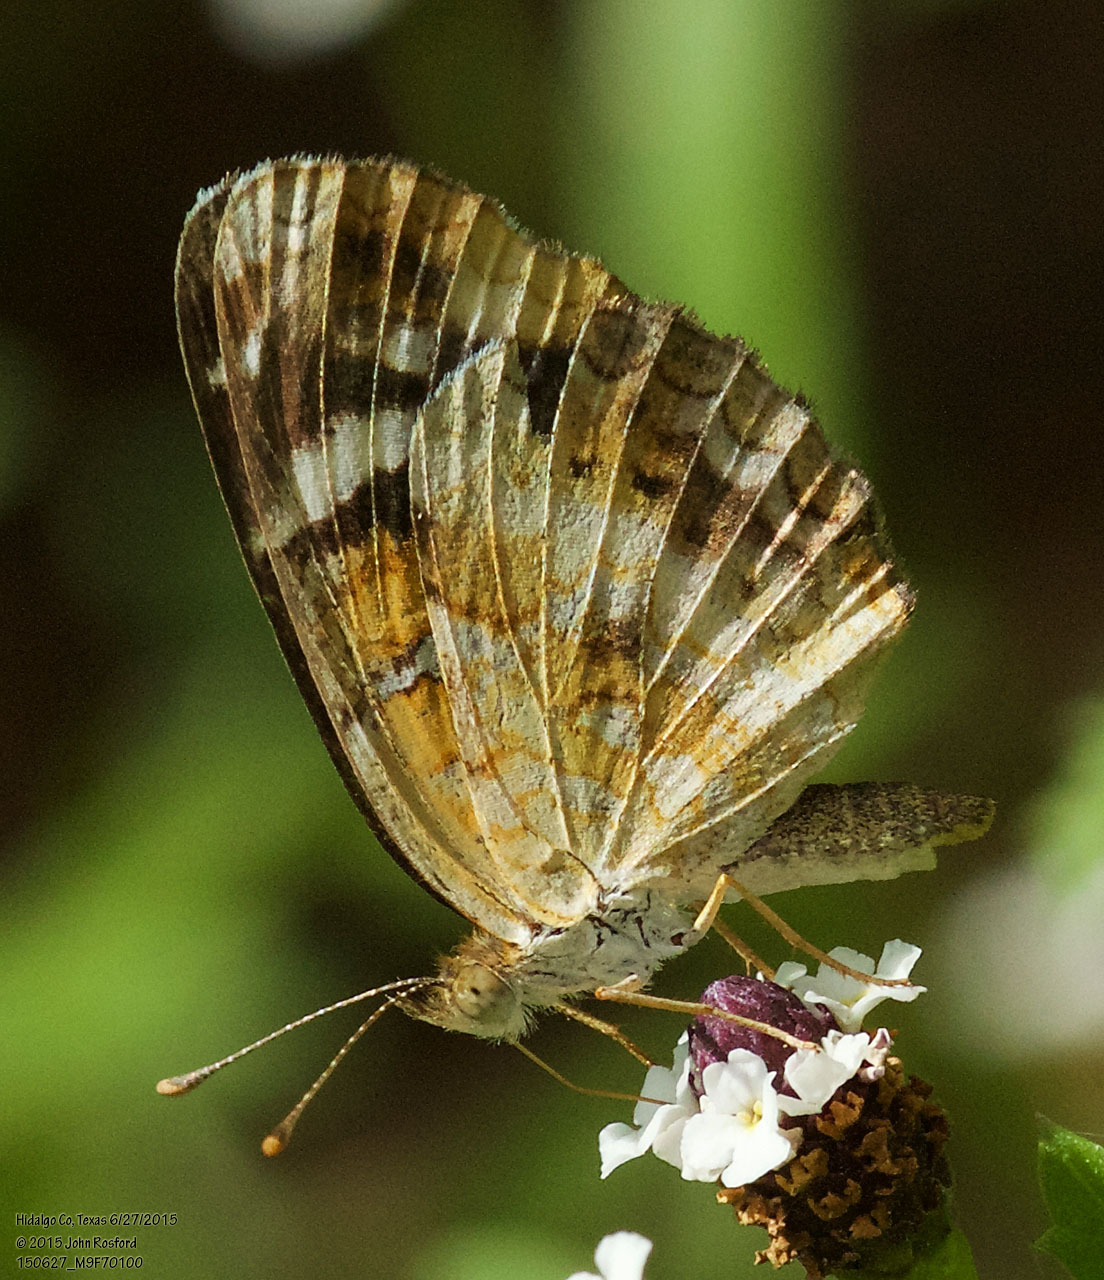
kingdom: Animalia
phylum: Arthropoda
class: Insecta
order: Lepidoptera
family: Nymphalidae
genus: Anthanassa
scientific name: Anthanassa tulcis
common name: Pale-banded crescent
